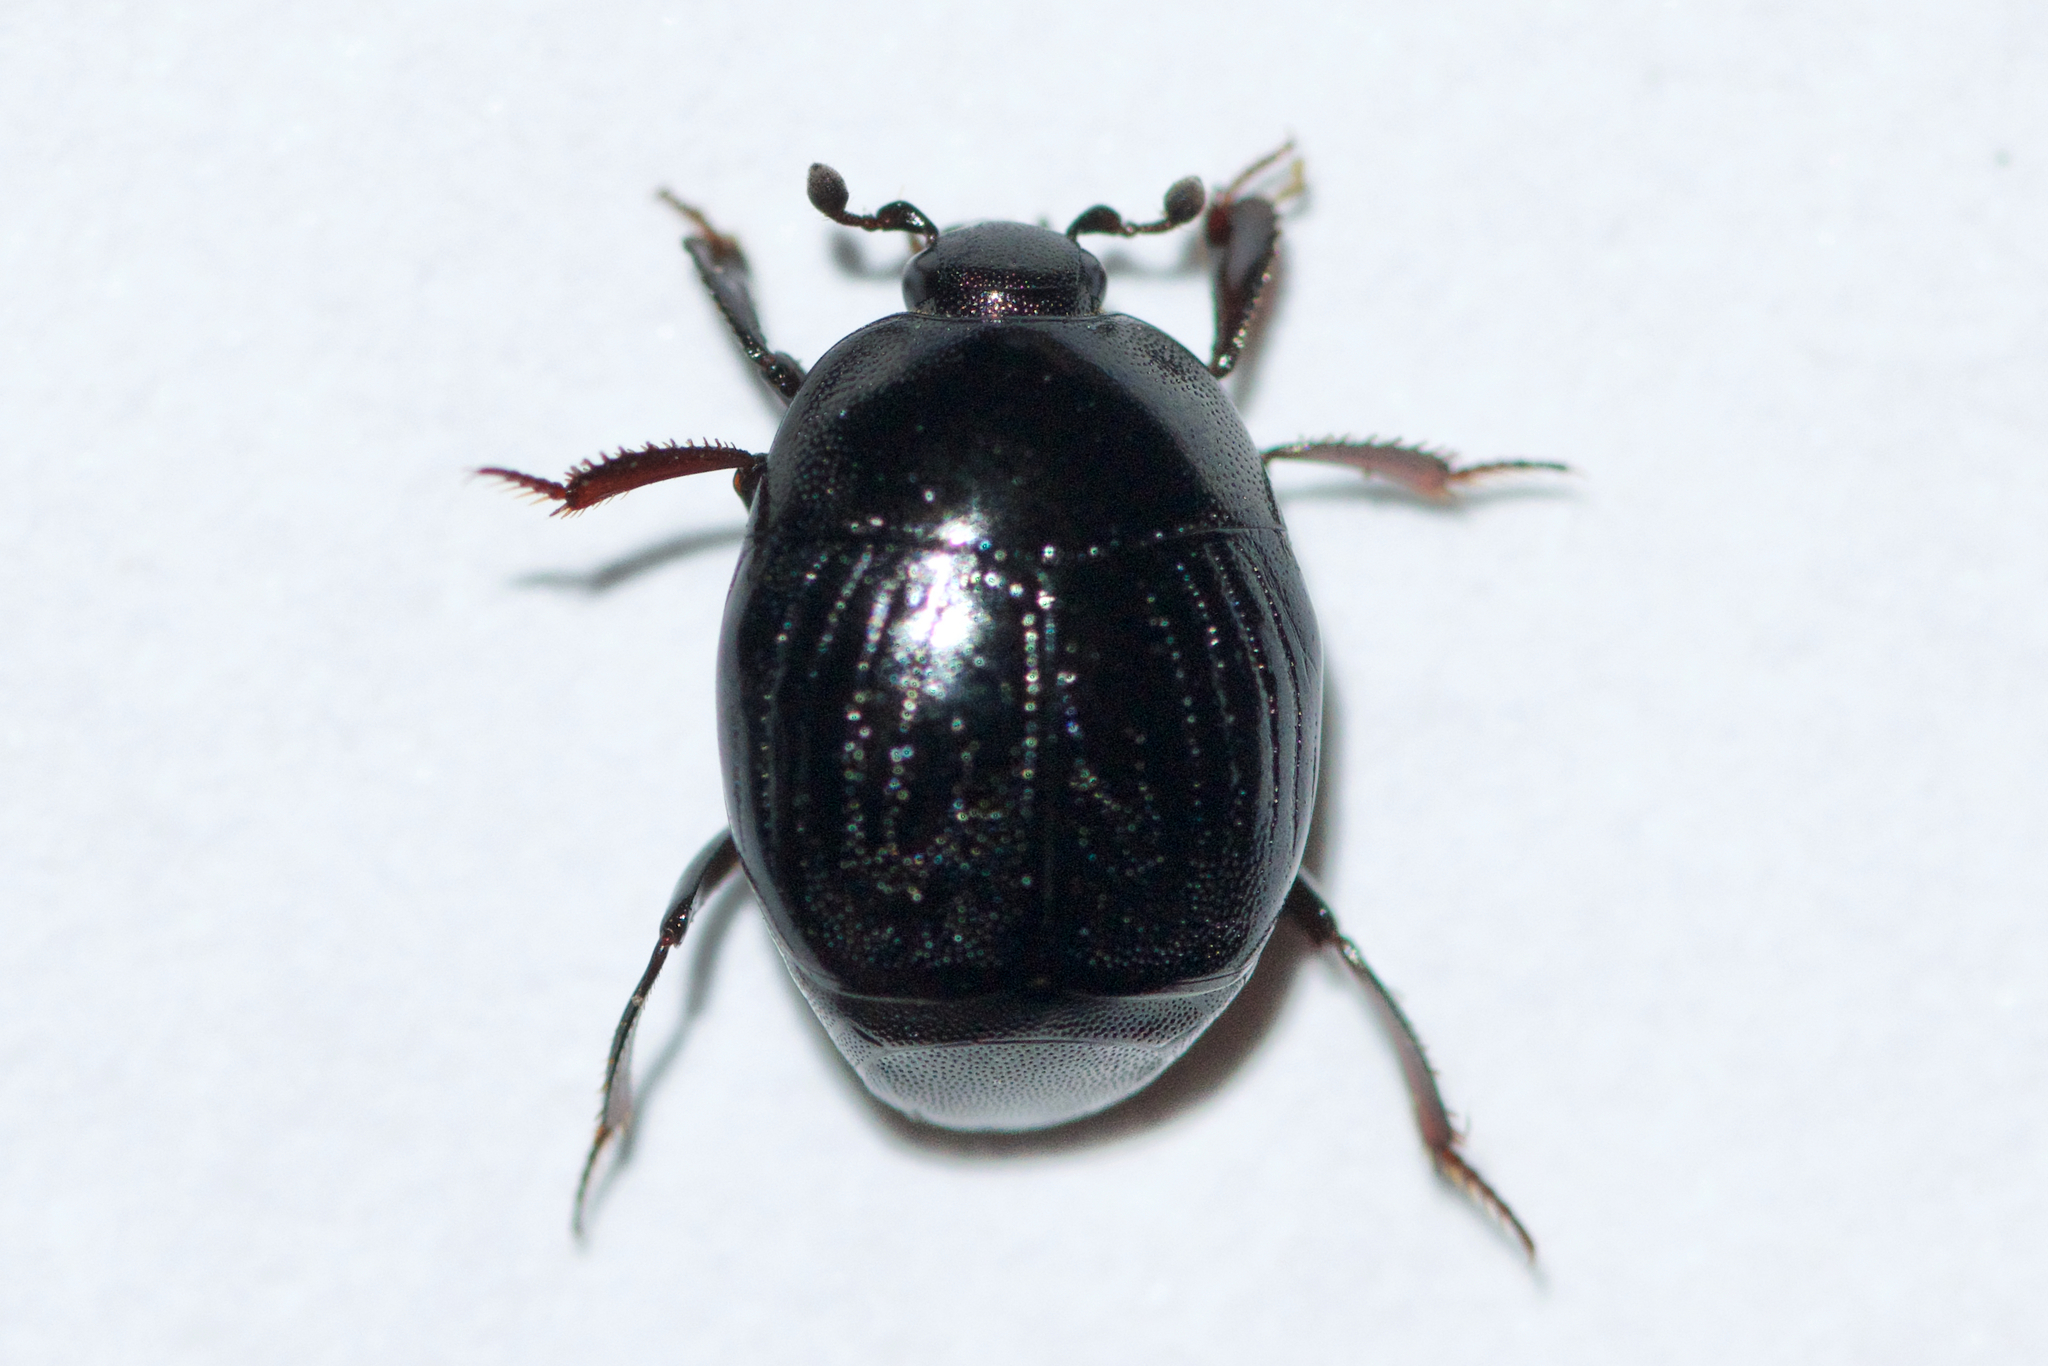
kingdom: Animalia
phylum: Arthropoda
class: Insecta
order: Coleoptera
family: Histeridae
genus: Euspilotus
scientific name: Euspilotus assimilis
